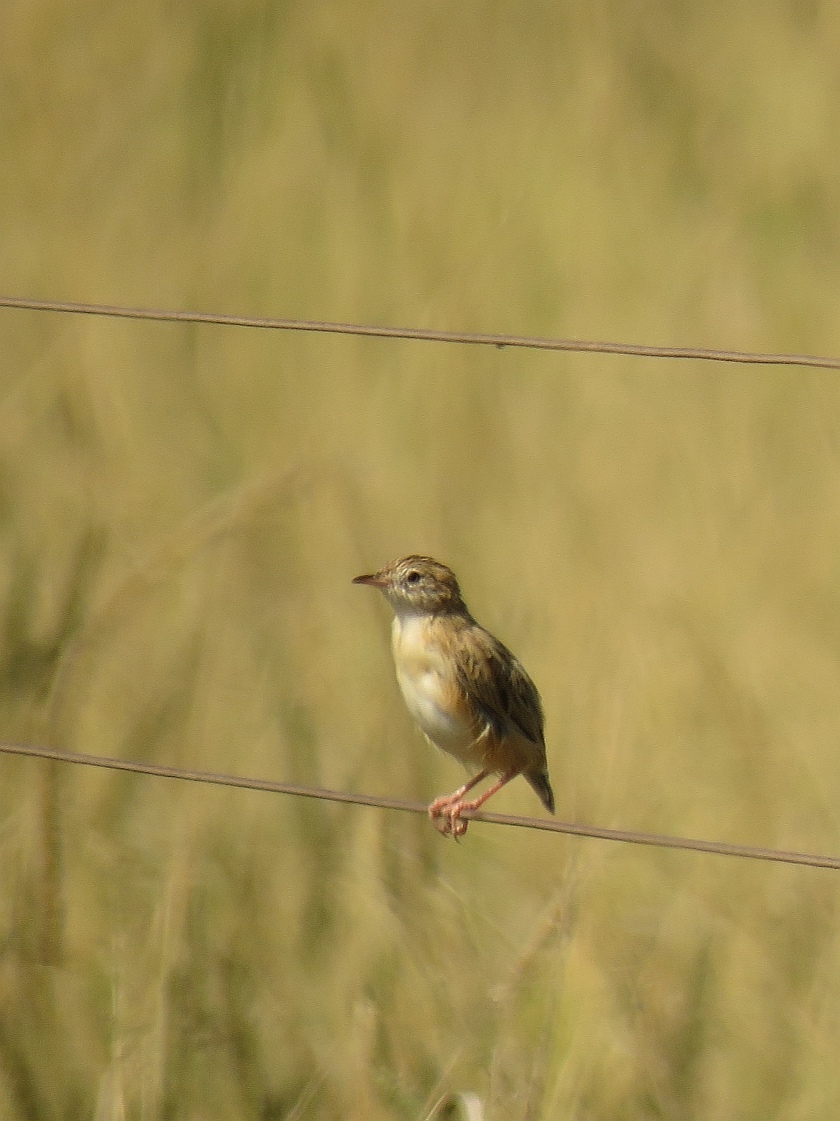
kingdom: Animalia
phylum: Chordata
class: Aves
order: Passeriformes
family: Cisticolidae
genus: Cisticola
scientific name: Cisticola aridulus
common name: Desert cisticola
